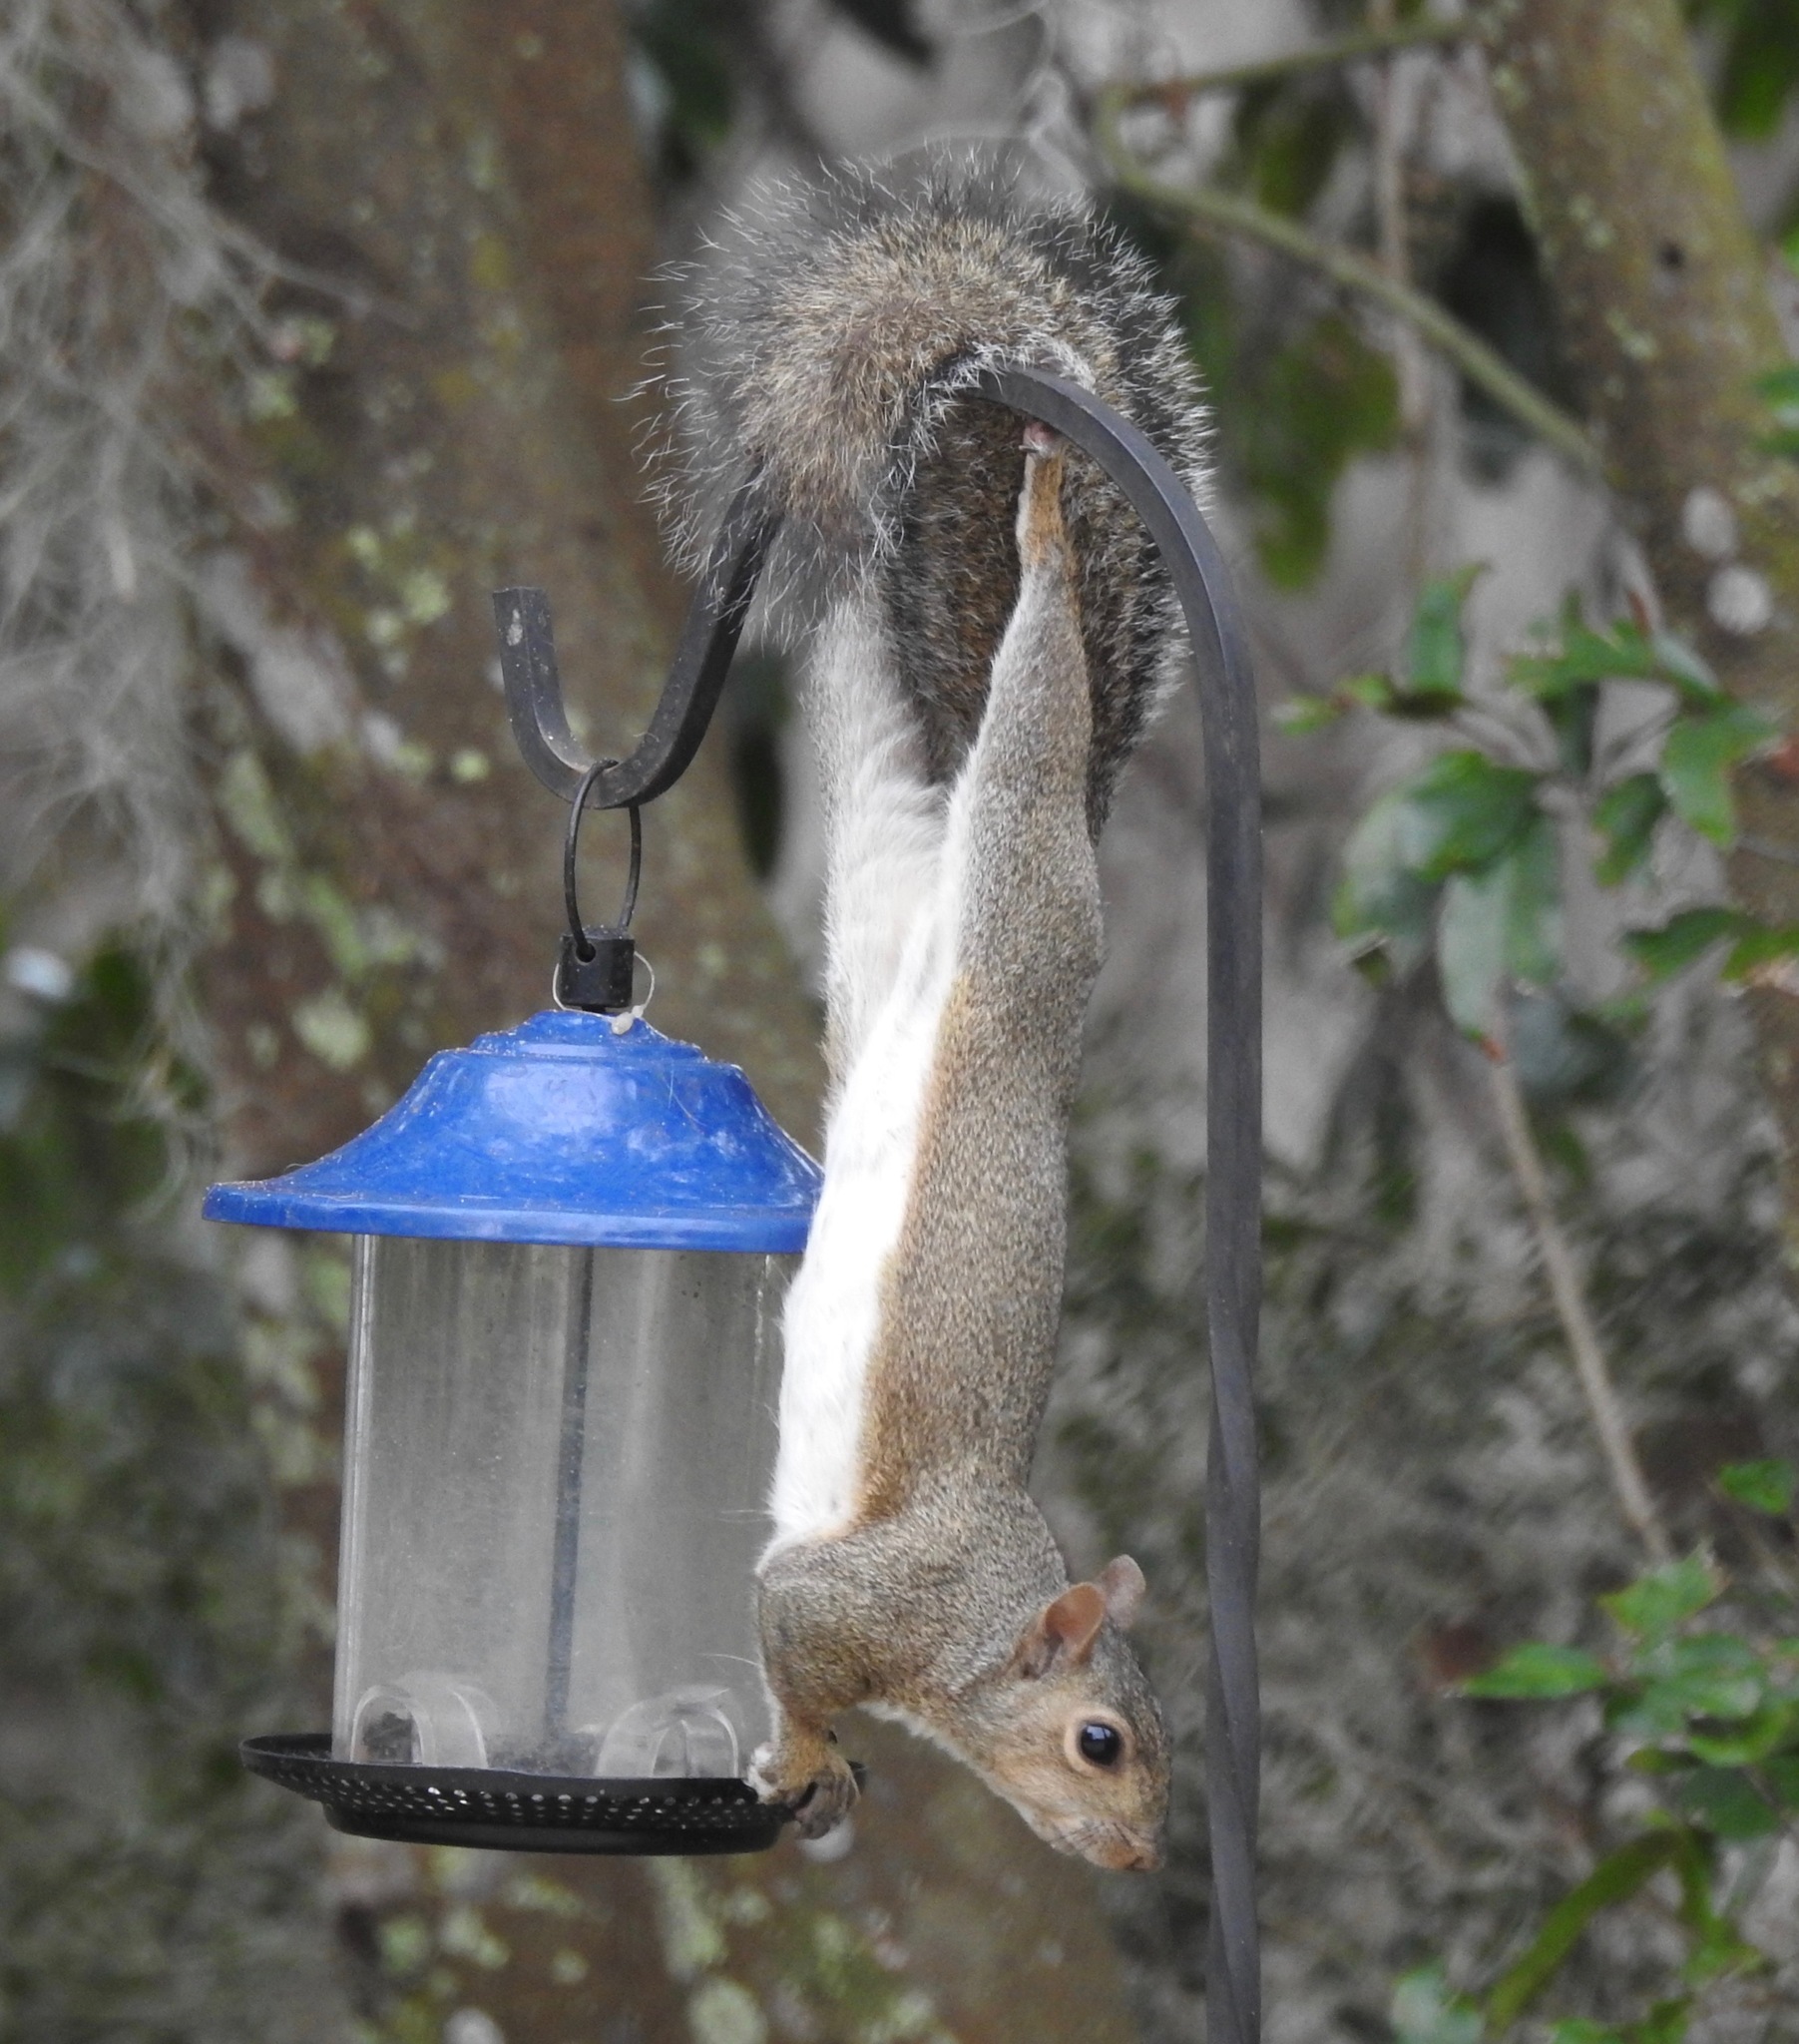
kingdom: Animalia
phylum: Chordata
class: Mammalia
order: Rodentia
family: Sciuridae
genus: Sciurus
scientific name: Sciurus carolinensis
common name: Eastern gray squirrel
